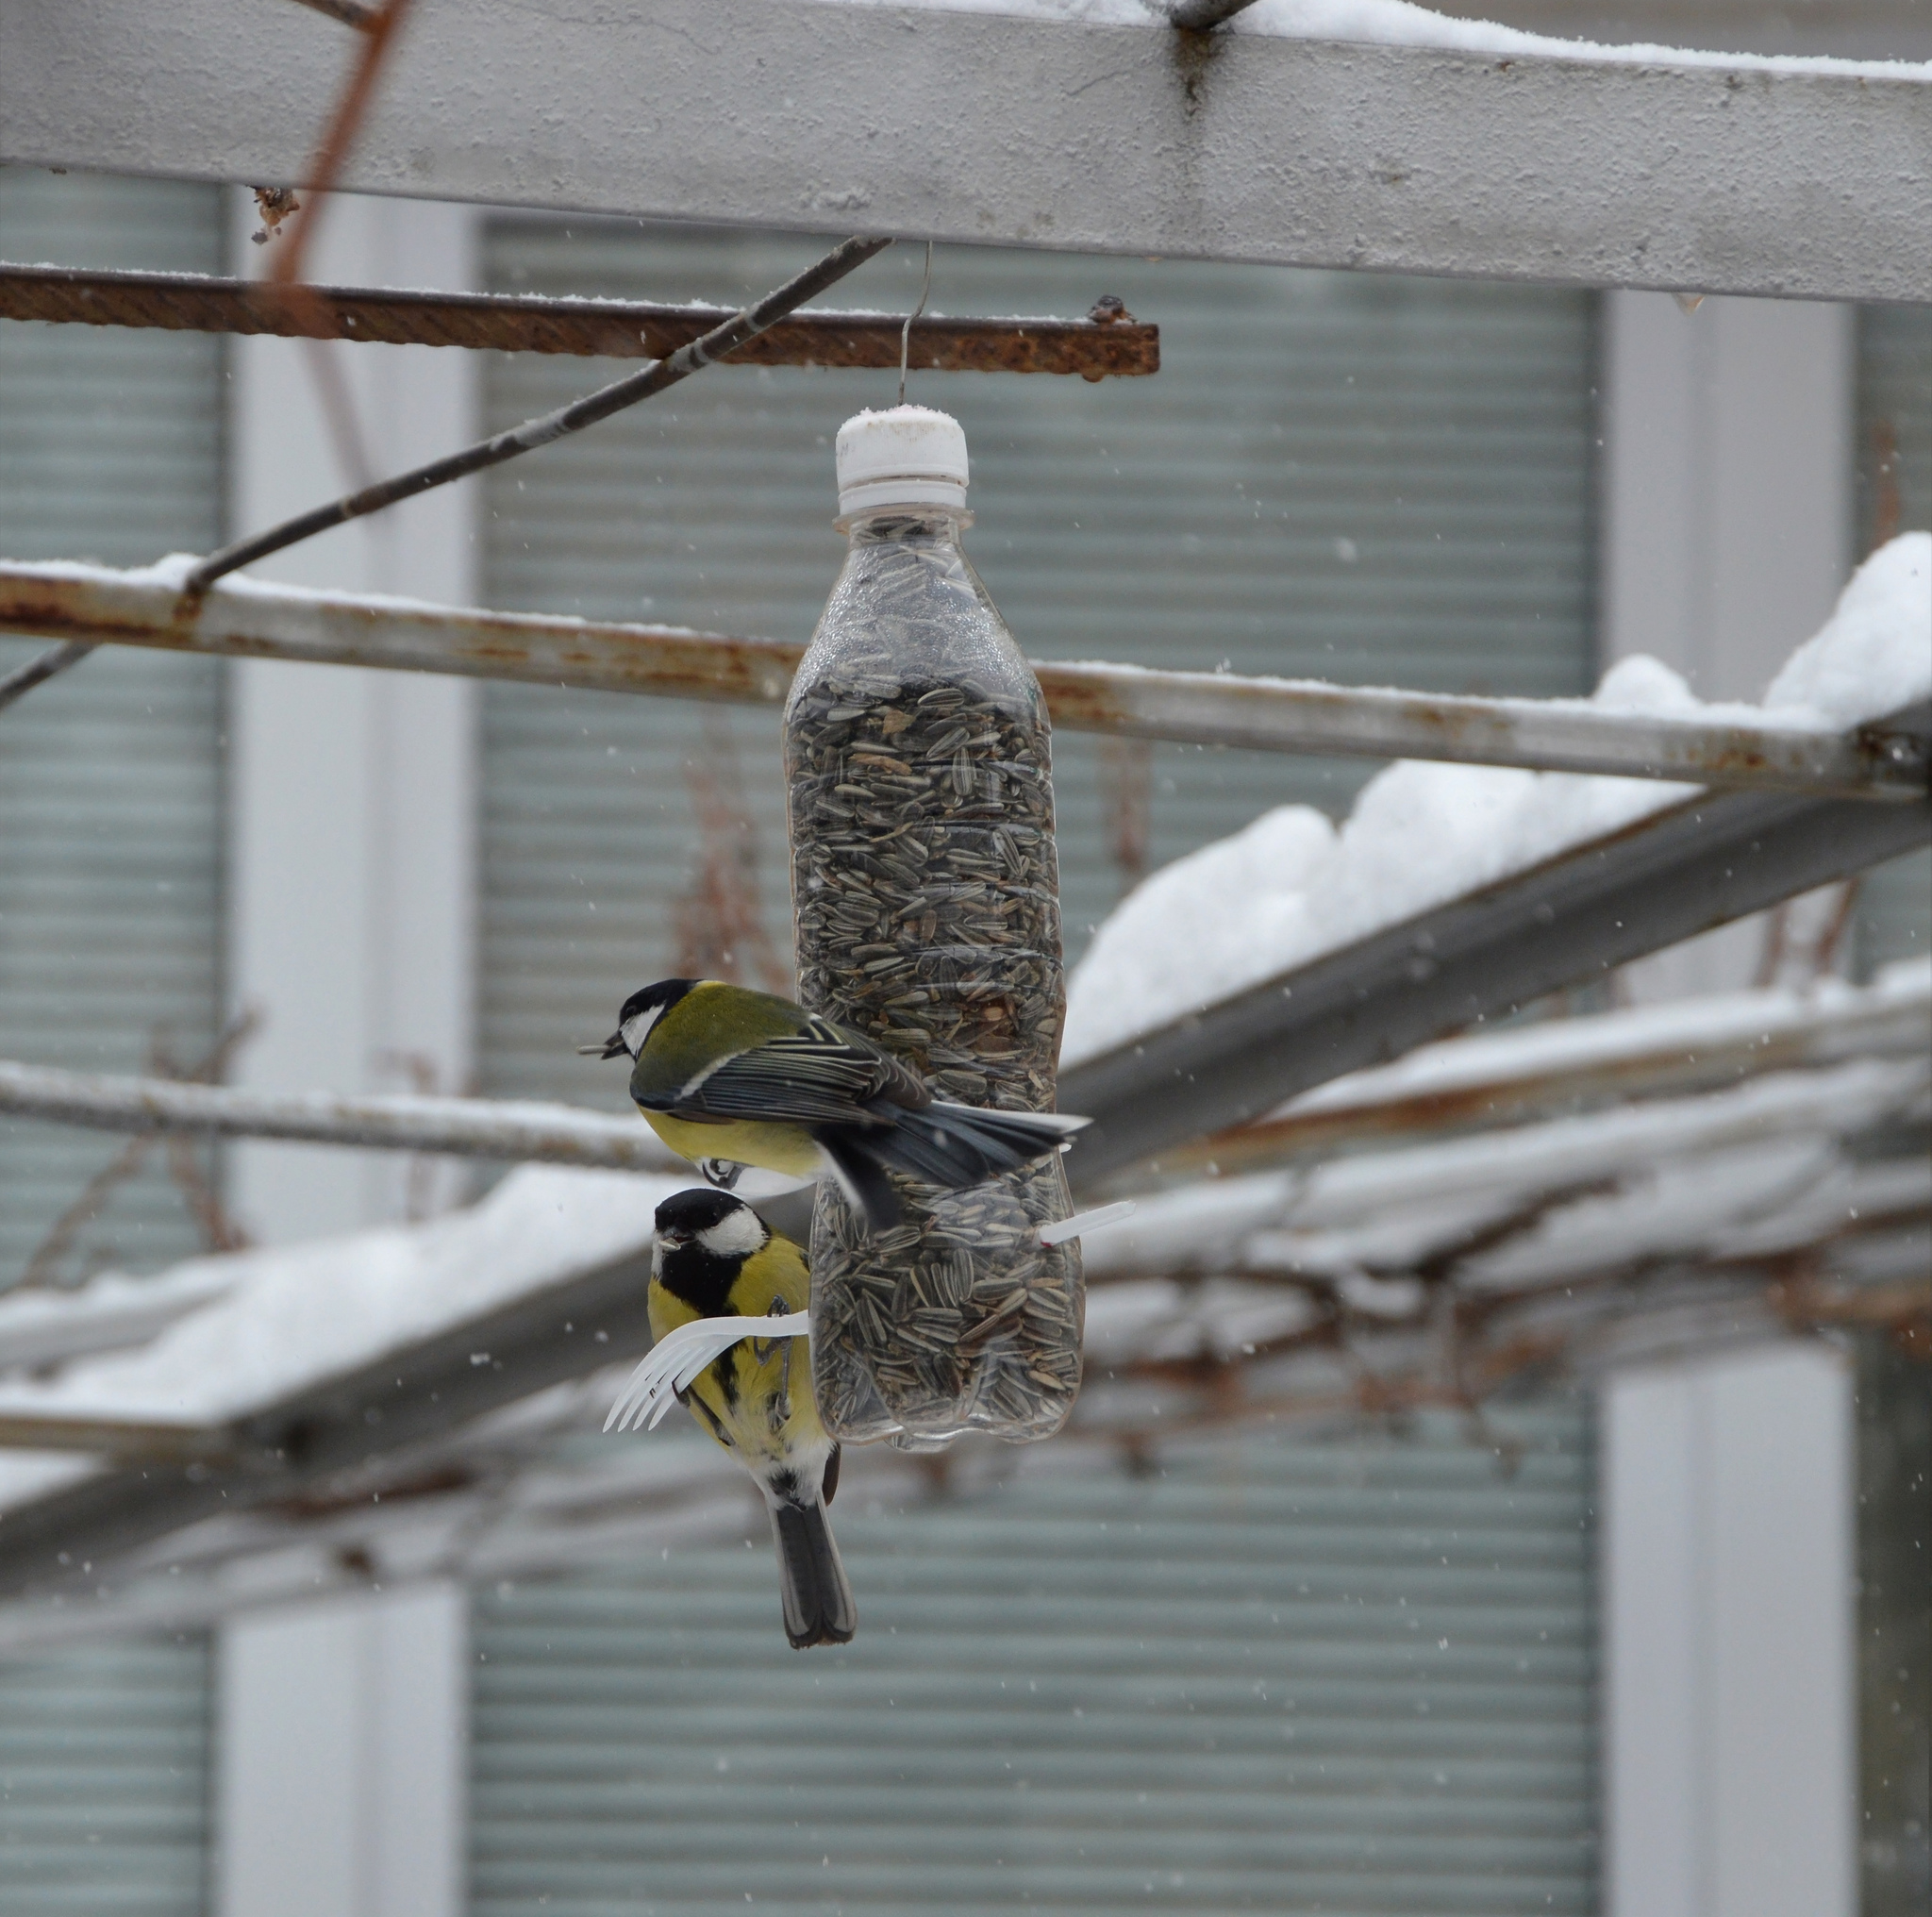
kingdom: Animalia
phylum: Chordata
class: Aves
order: Passeriformes
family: Paridae
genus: Parus
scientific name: Parus major
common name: Great tit
